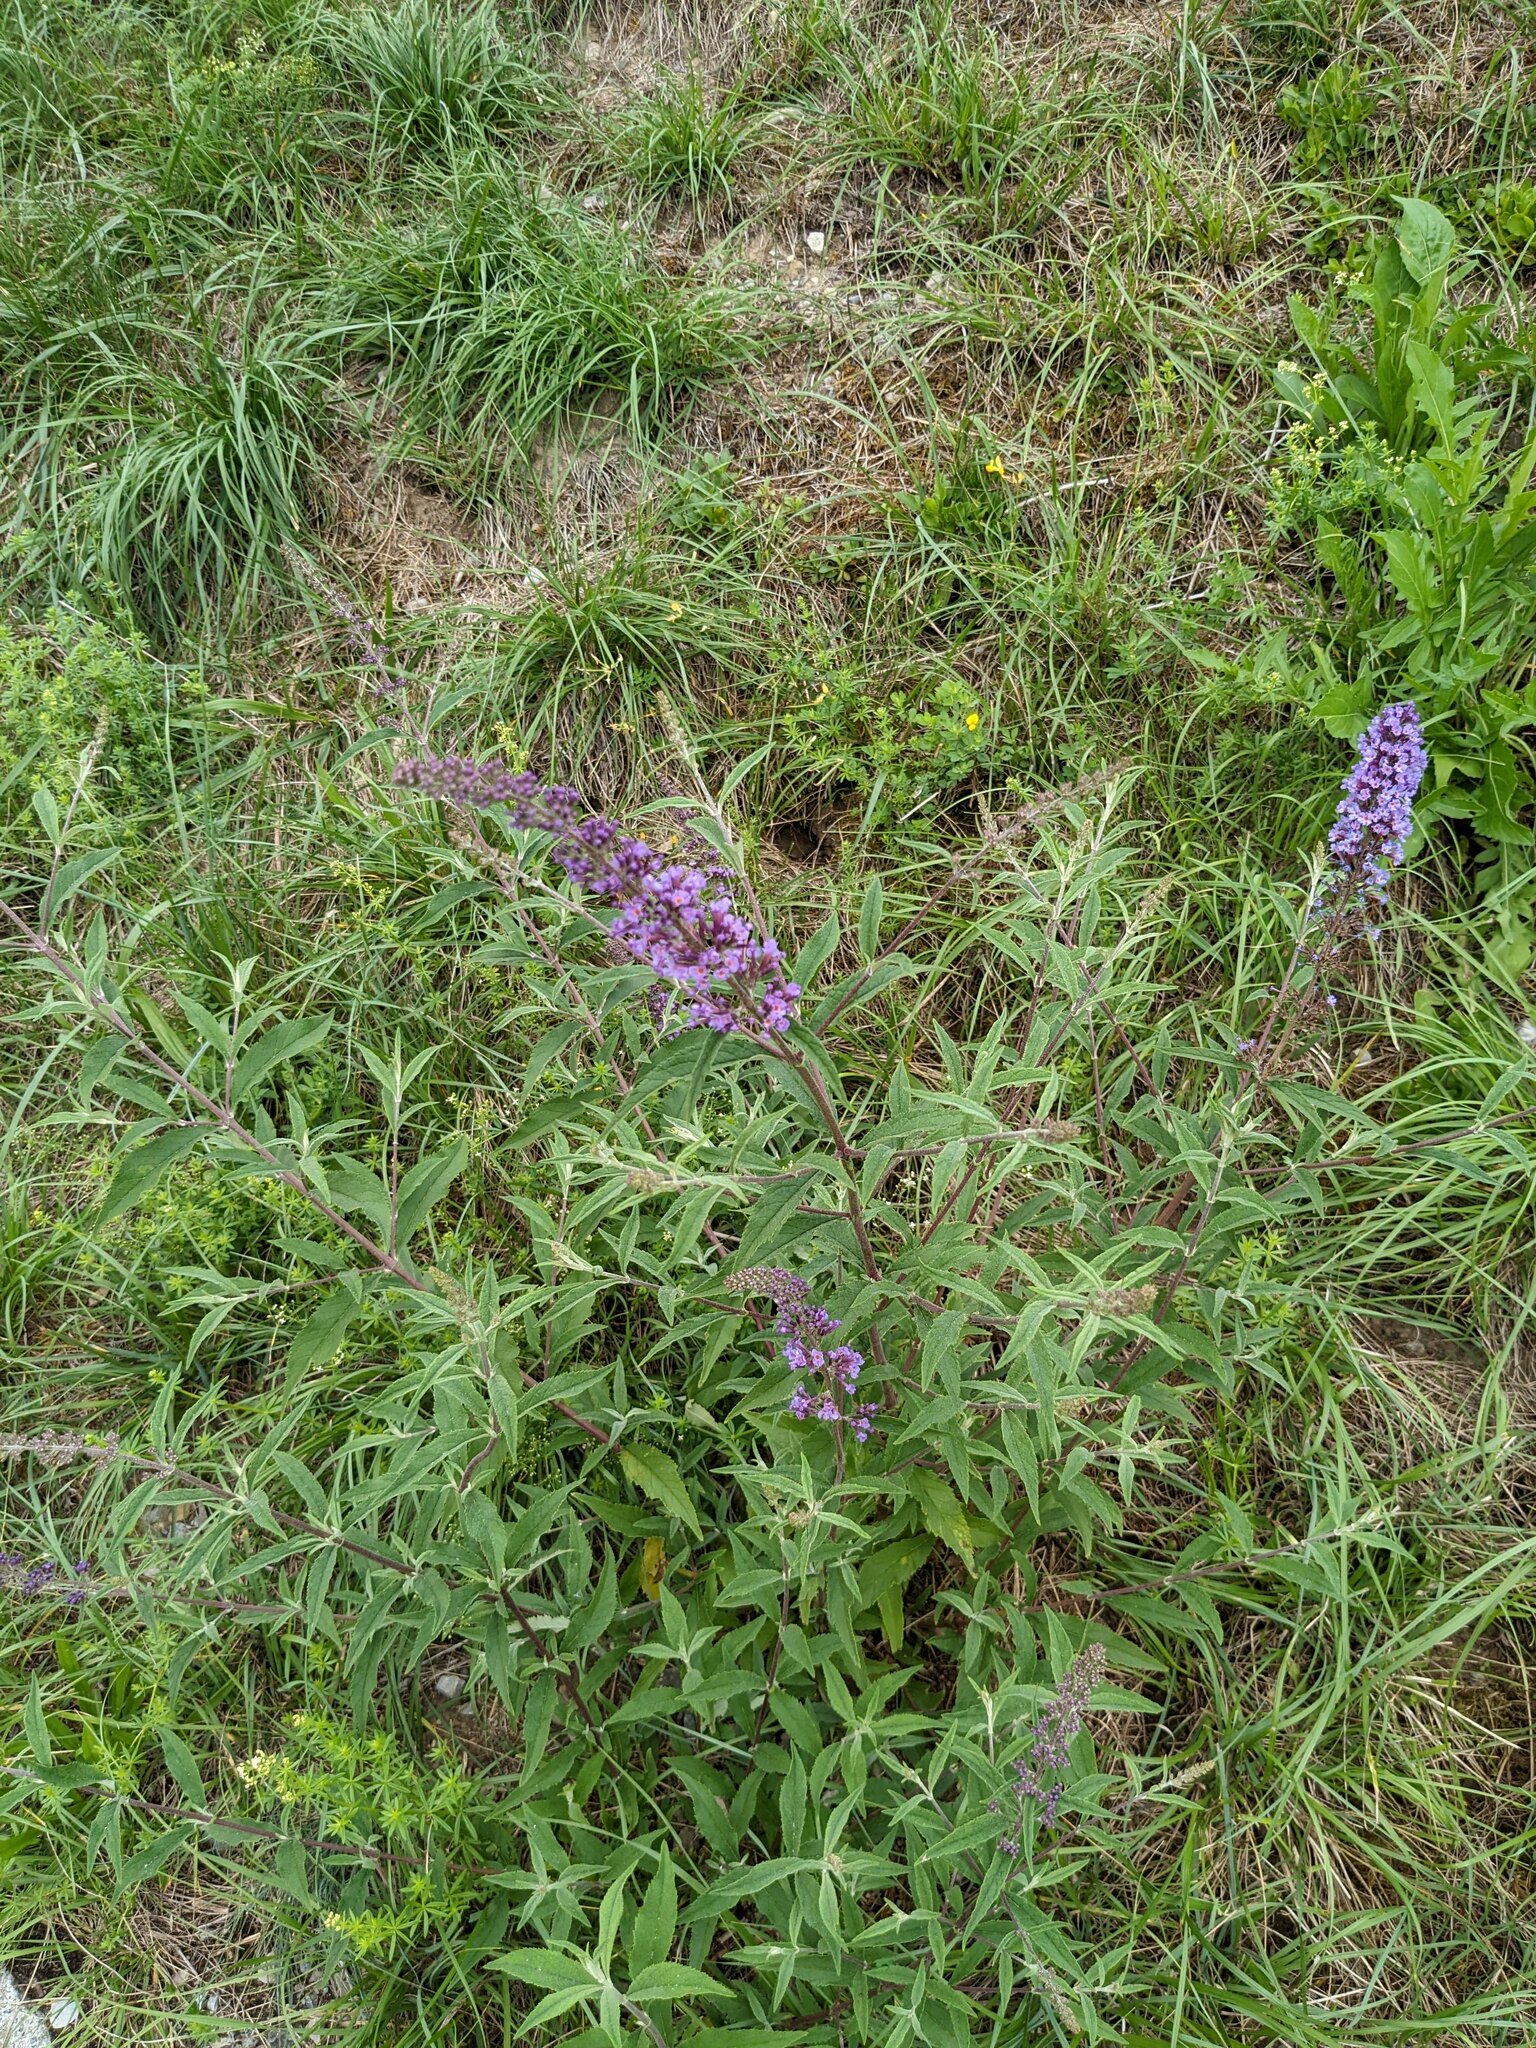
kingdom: Plantae
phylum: Tracheophyta
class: Magnoliopsida
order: Lamiales
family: Scrophulariaceae
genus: Buddleja
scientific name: Buddleja davidii
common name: Butterfly-bush
